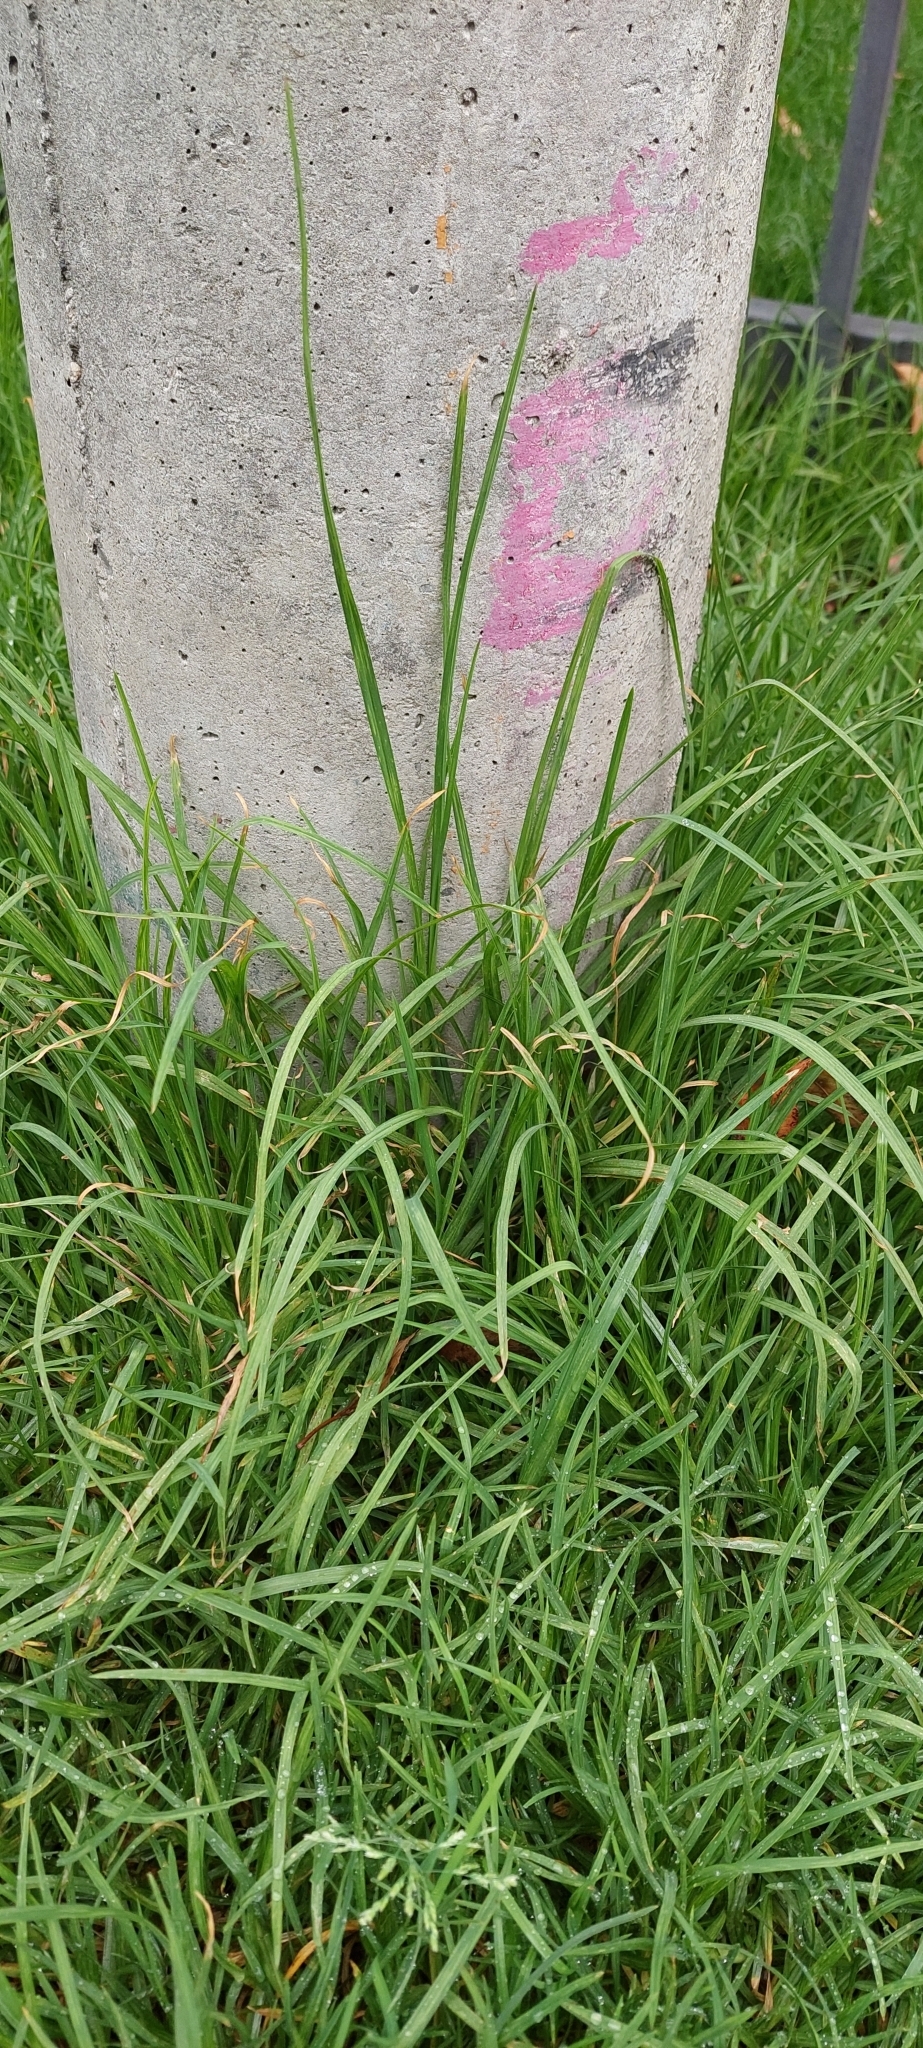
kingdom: Plantae
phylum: Tracheophyta
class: Liliopsida
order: Poales
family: Poaceae
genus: Cenchrus
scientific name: Cenchrus clandestinus
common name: Kikuyugrass
